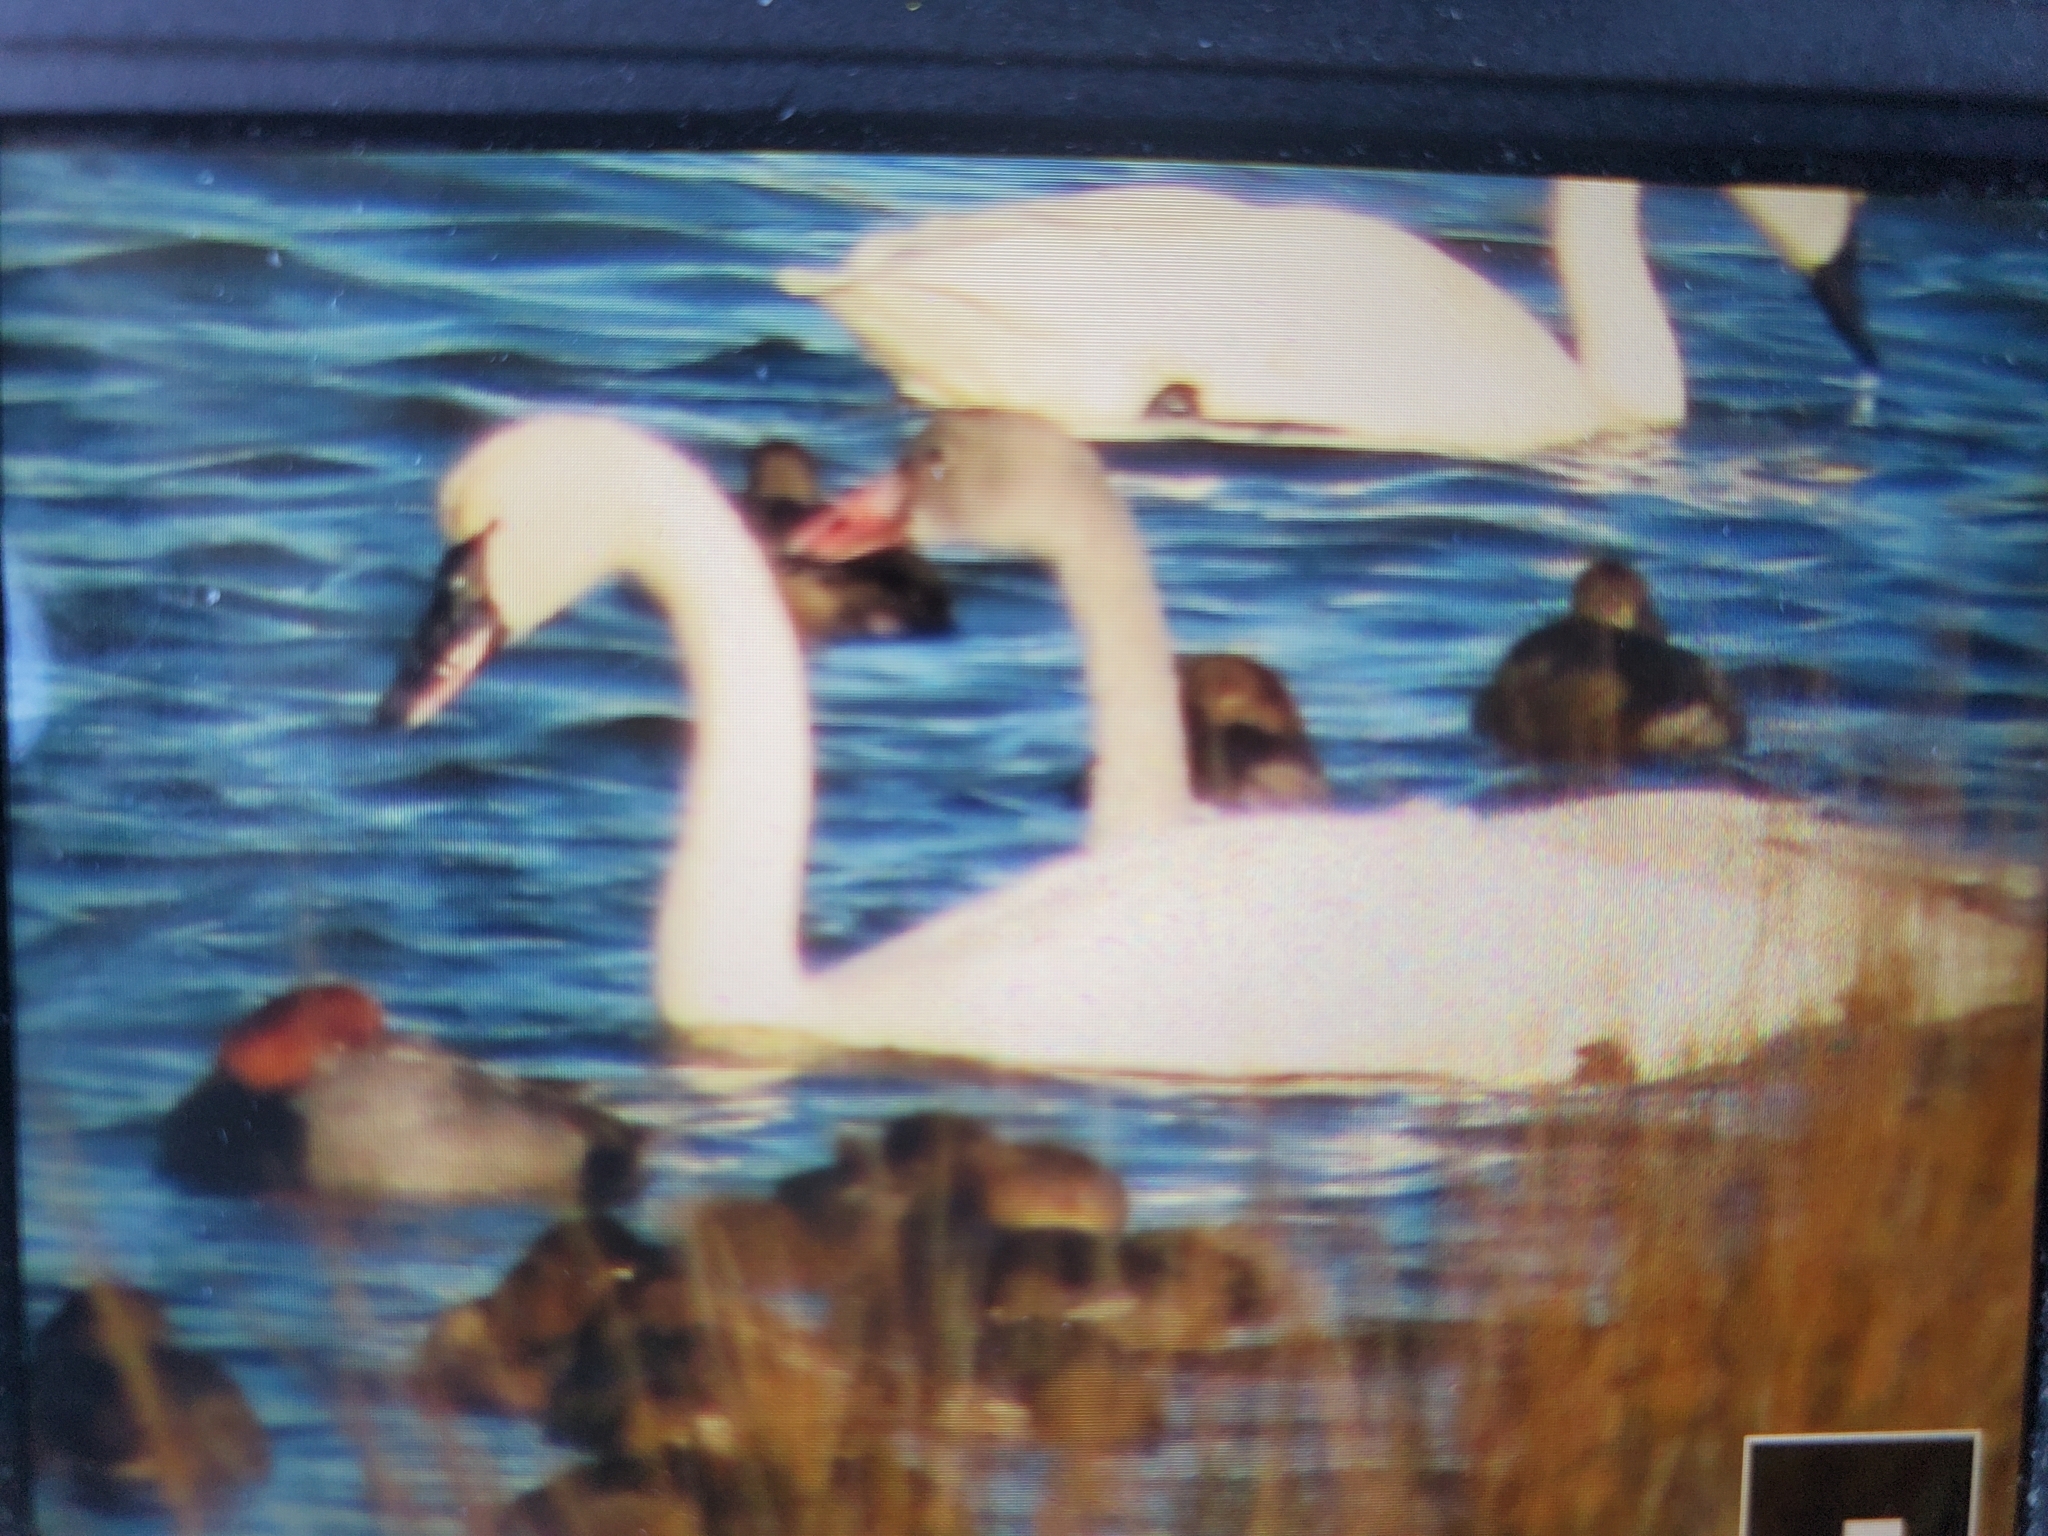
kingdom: Animalia
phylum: Chordata
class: Aves
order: Anseriformes
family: Anatidae
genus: Cygnus
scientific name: Cygnus columbianus
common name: Tundra swan
